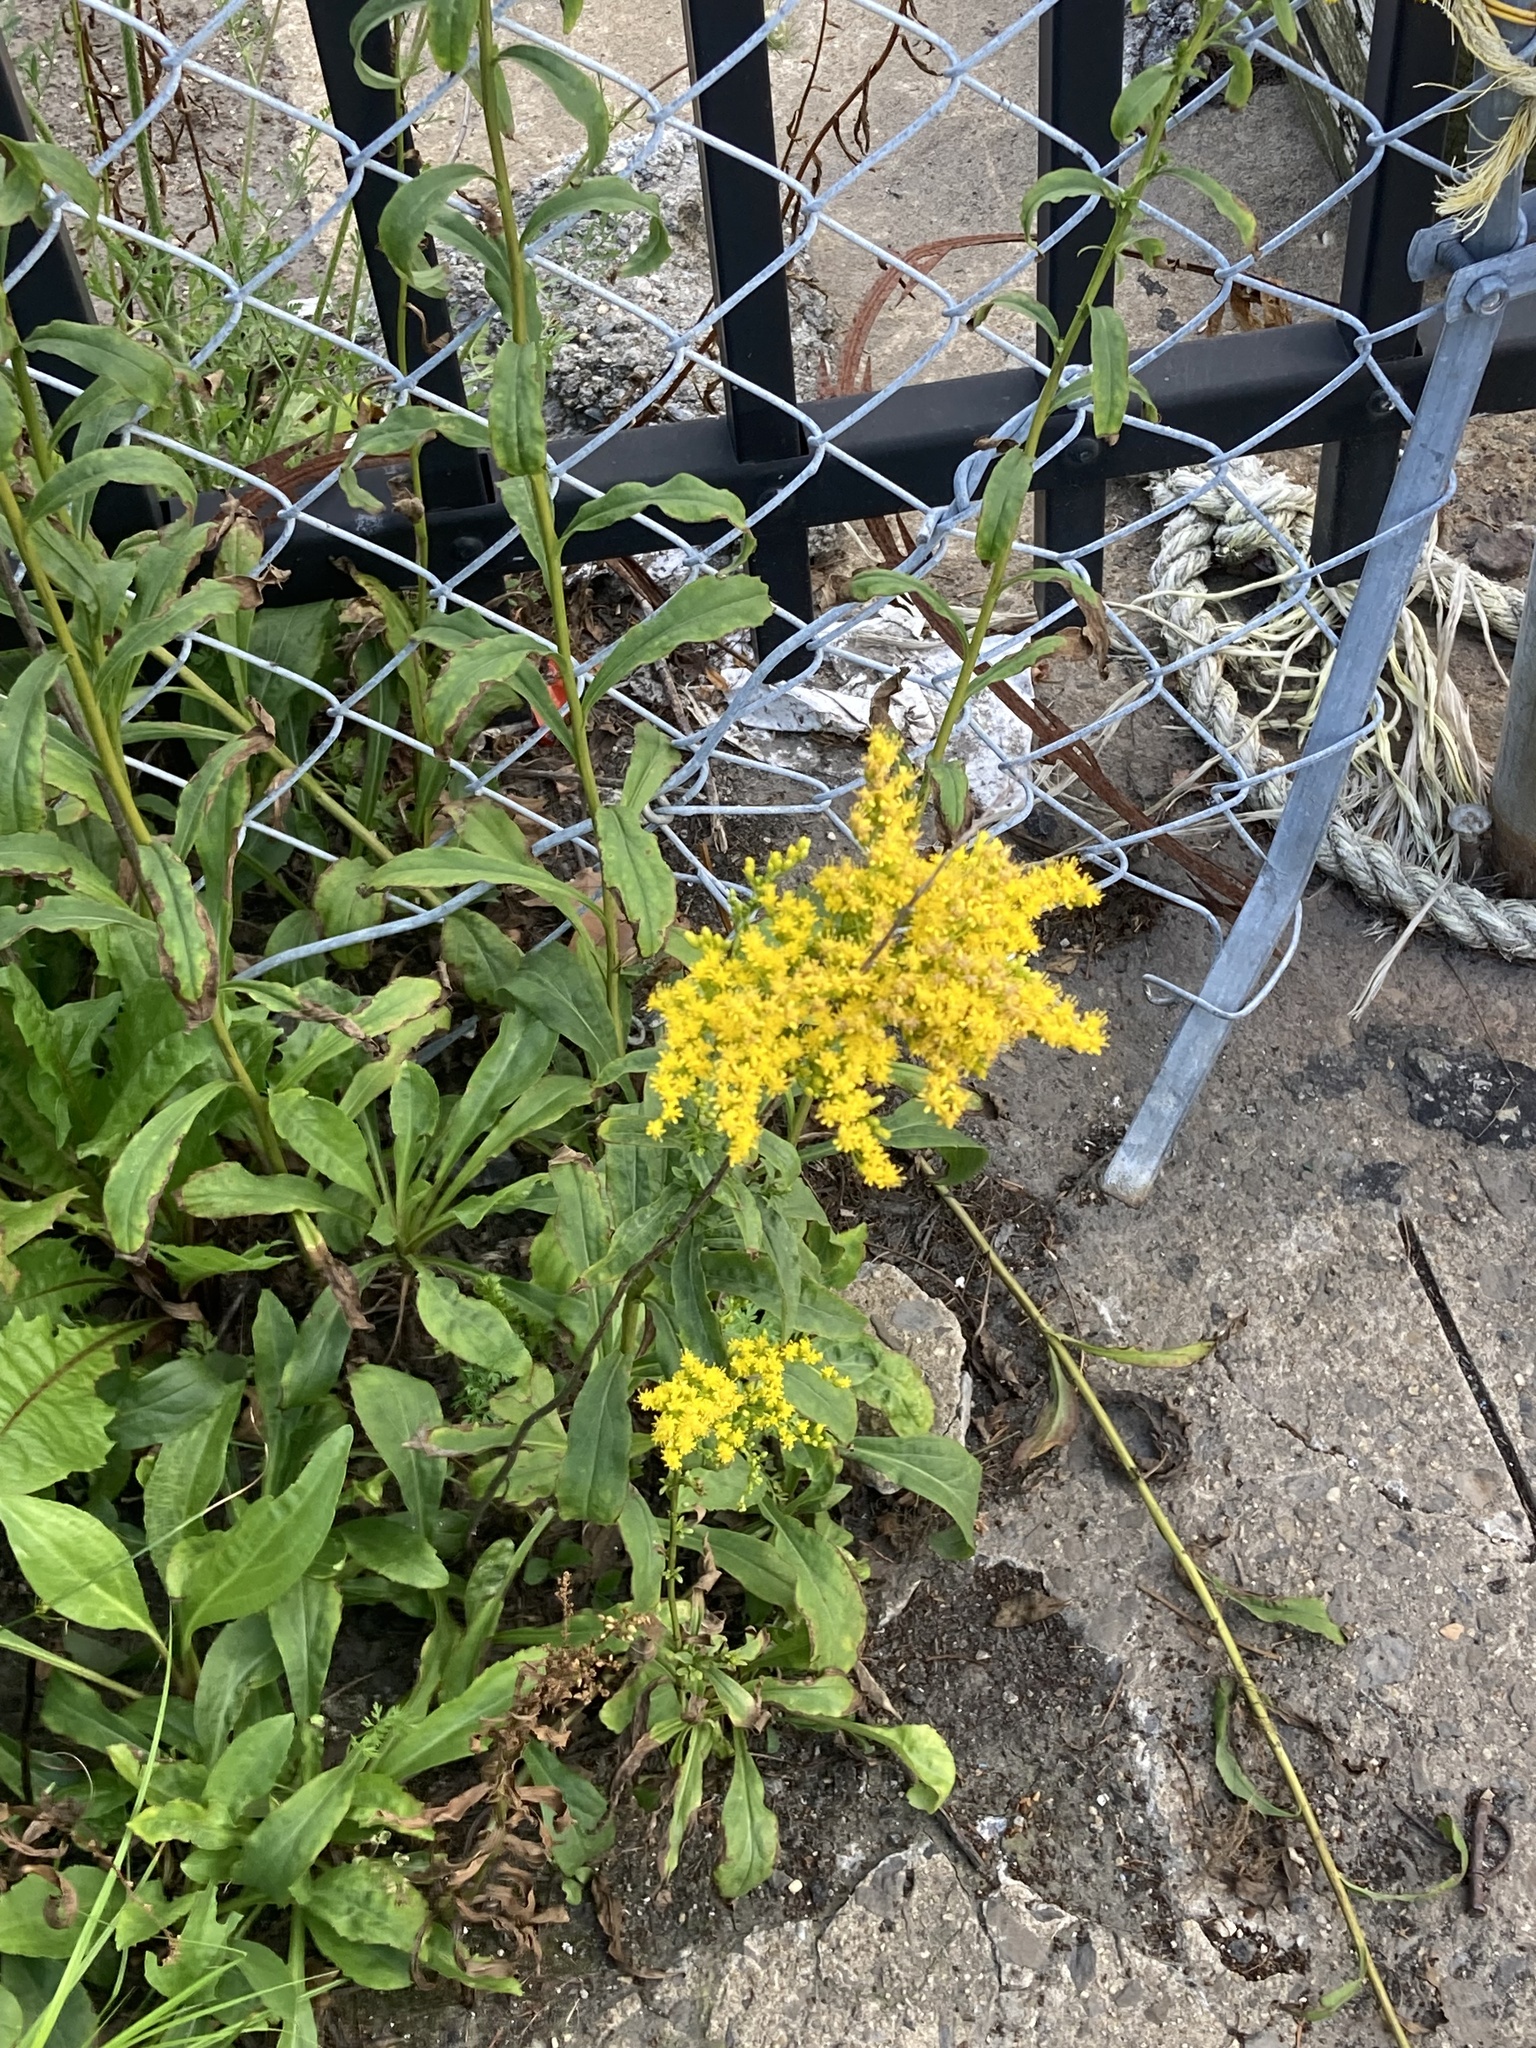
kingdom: Plantae
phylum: Tracheophyta
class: Magnoliopsida
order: Asterales
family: Asteraceae
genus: Solidago
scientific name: Solidago juncea
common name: Early goldenrod
